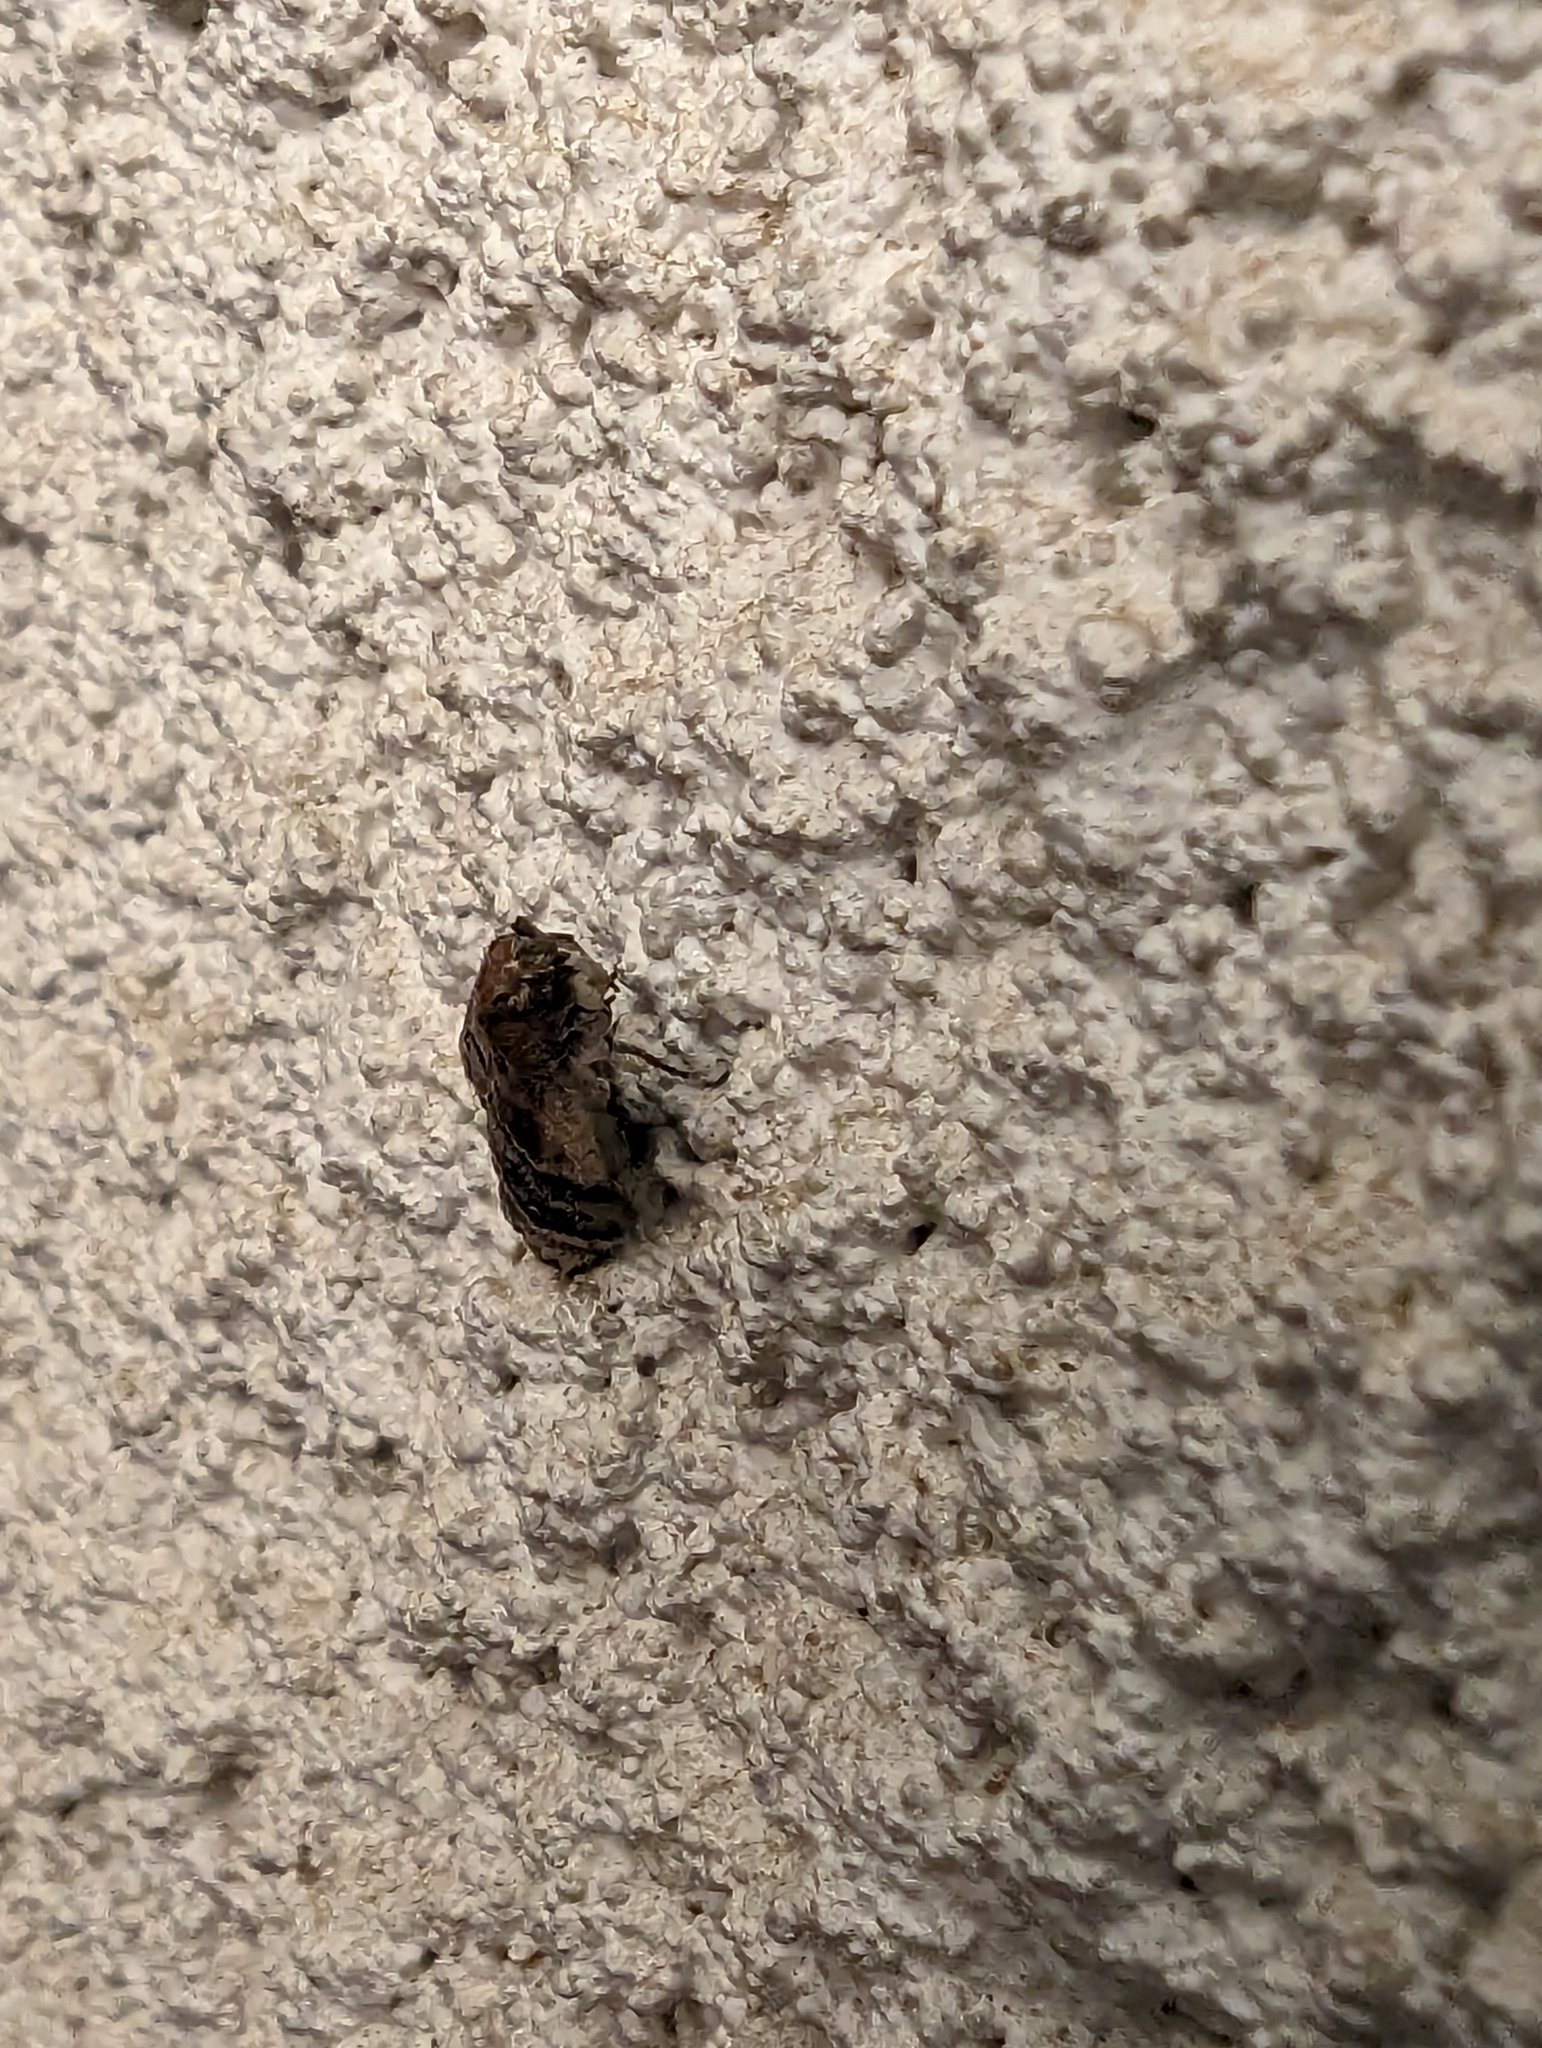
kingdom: Animalia
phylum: Arthropoda
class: Insecta
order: Lepidoptera
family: Pyralidae
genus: Euzophera
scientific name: Euzophera semifuneralis
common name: American plum borer moth
